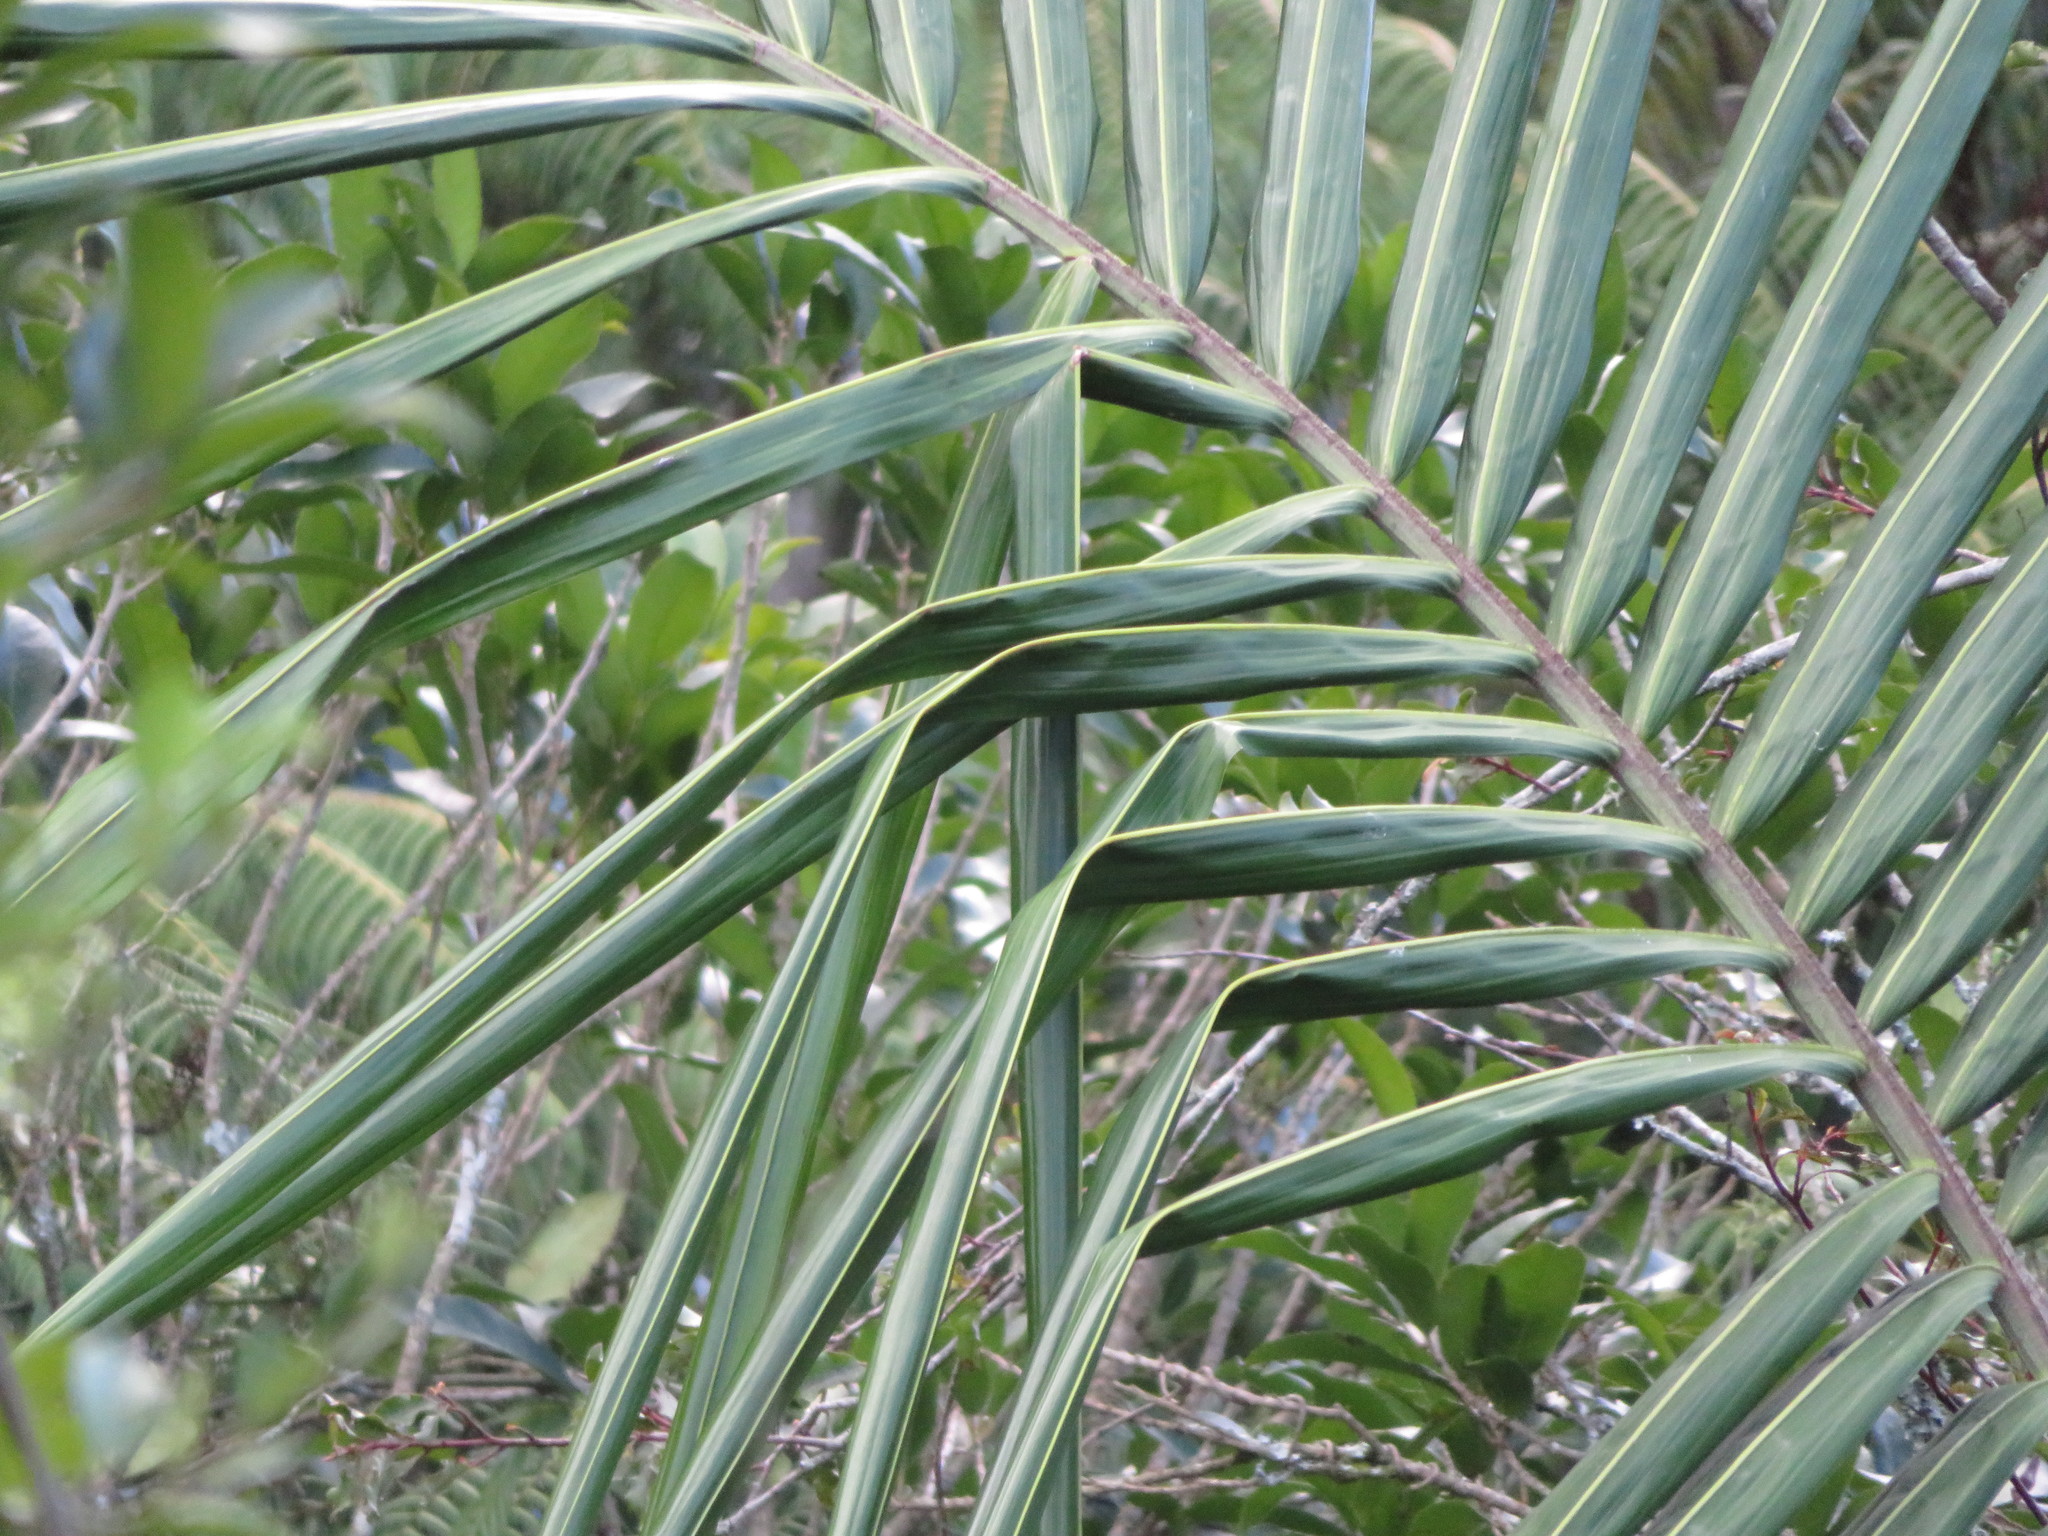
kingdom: Plantae
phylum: Tracheophyta
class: Liliopsida
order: Arecales
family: Arecaceae
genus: Archontophoenix
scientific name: Archontophoenix cunninghamiana
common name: Piccabeen bangalow palm
